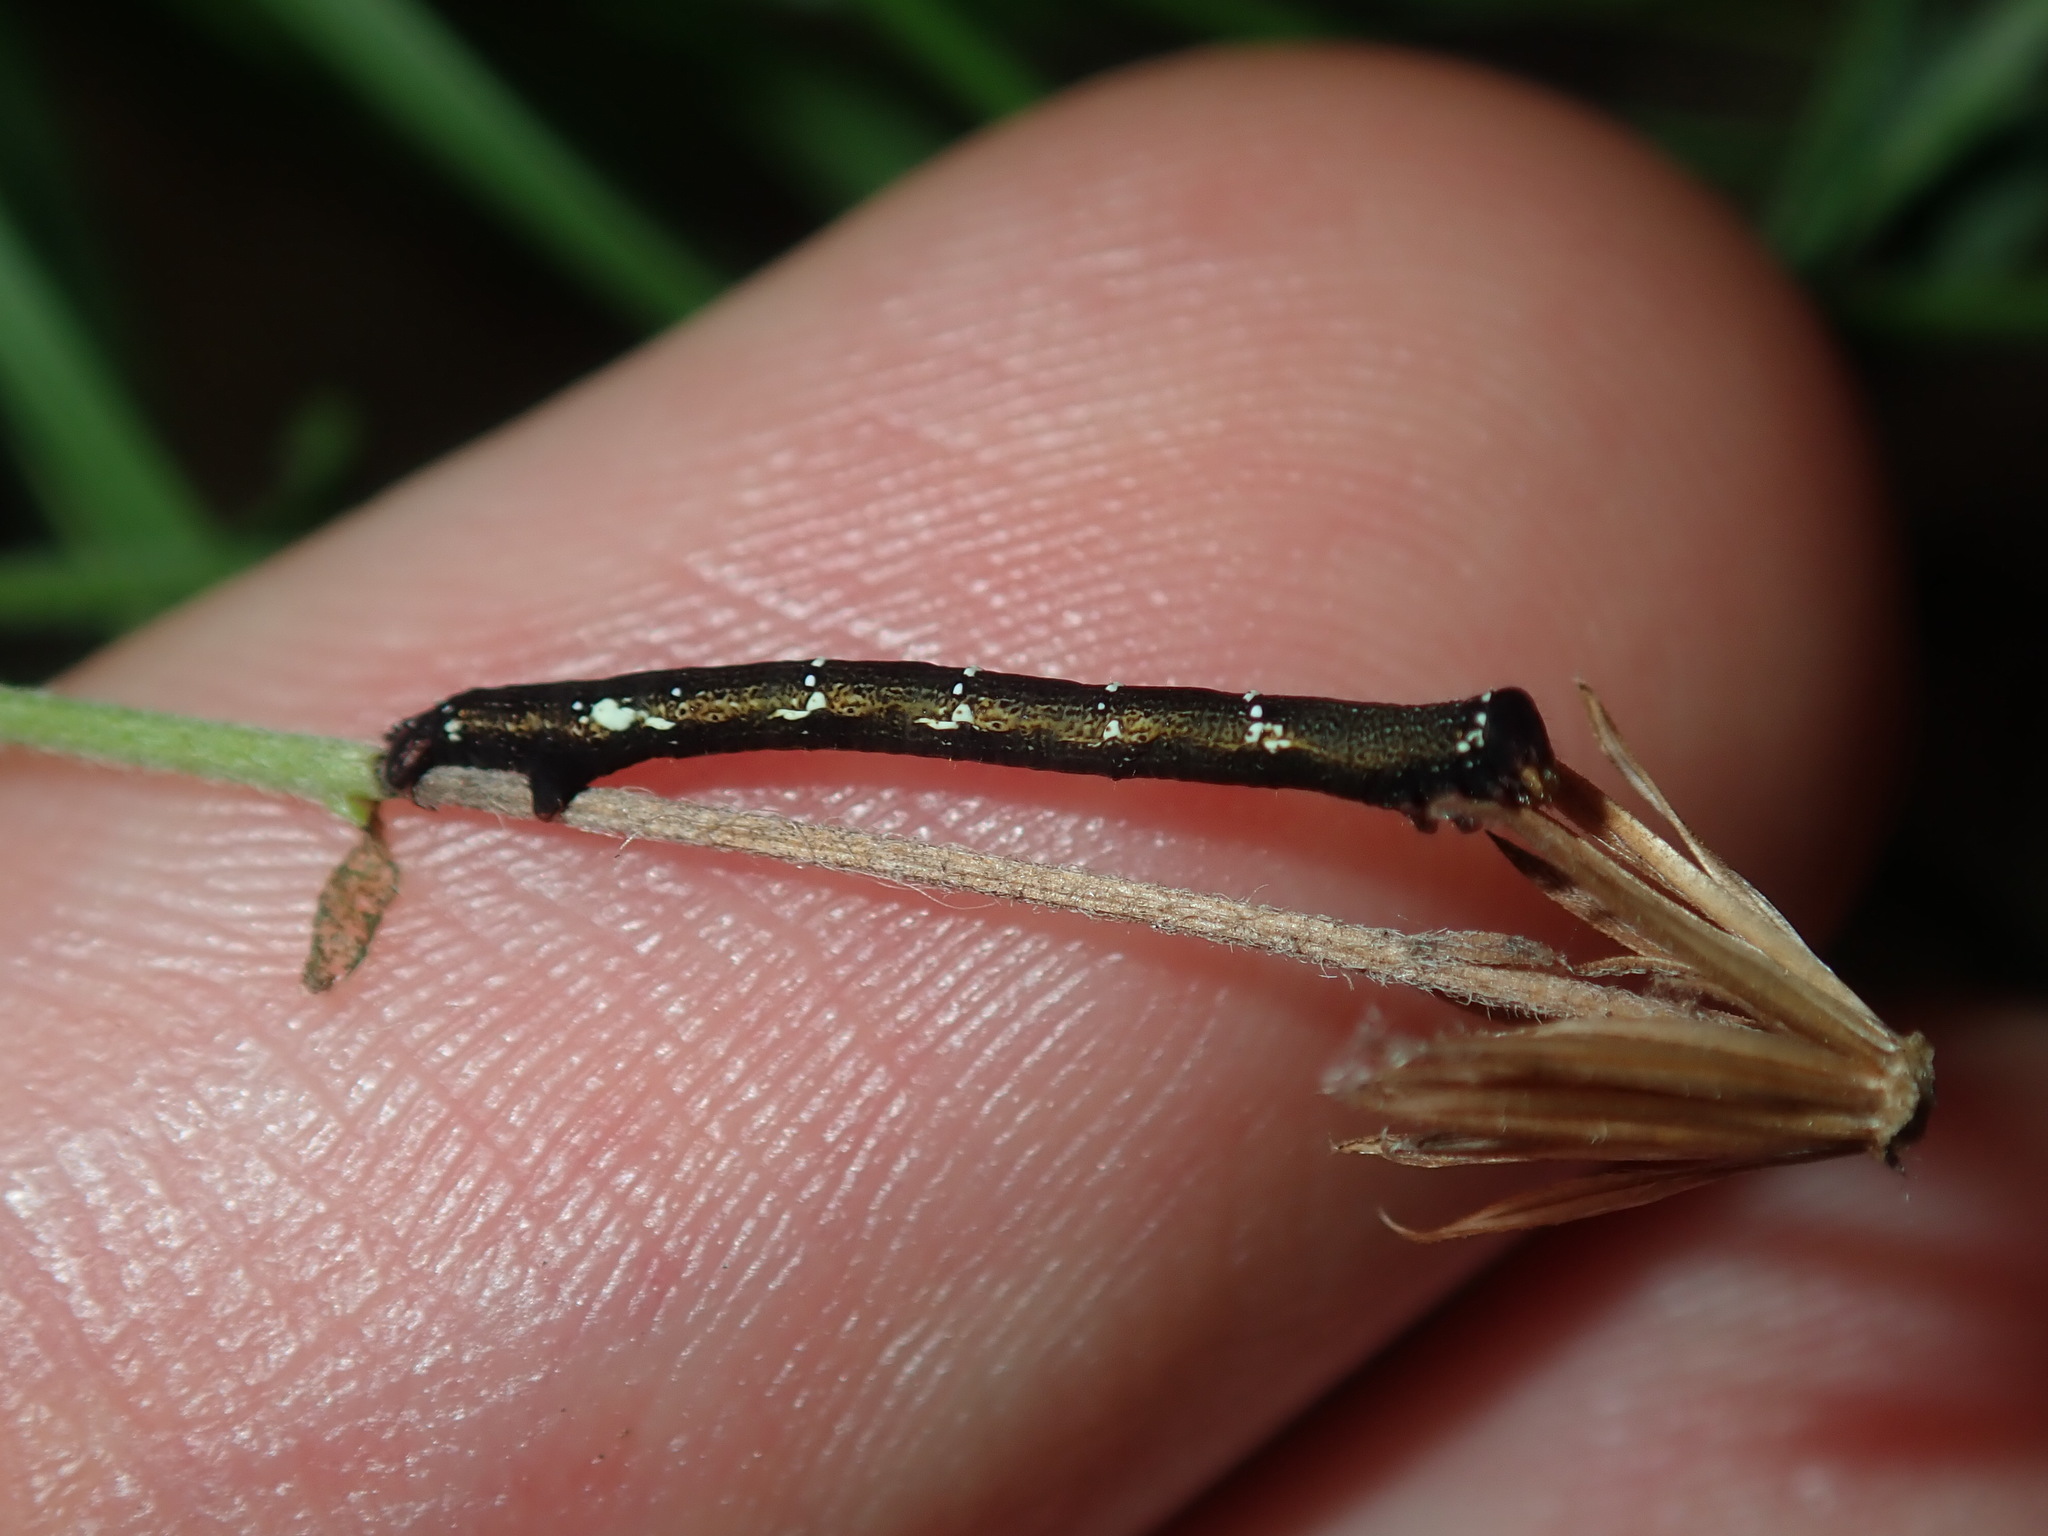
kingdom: Animalia
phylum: Arthropoda
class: Insecta
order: Lepidoptera
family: Geometridae
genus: Pholodes
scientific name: Pholodes sinistraria
